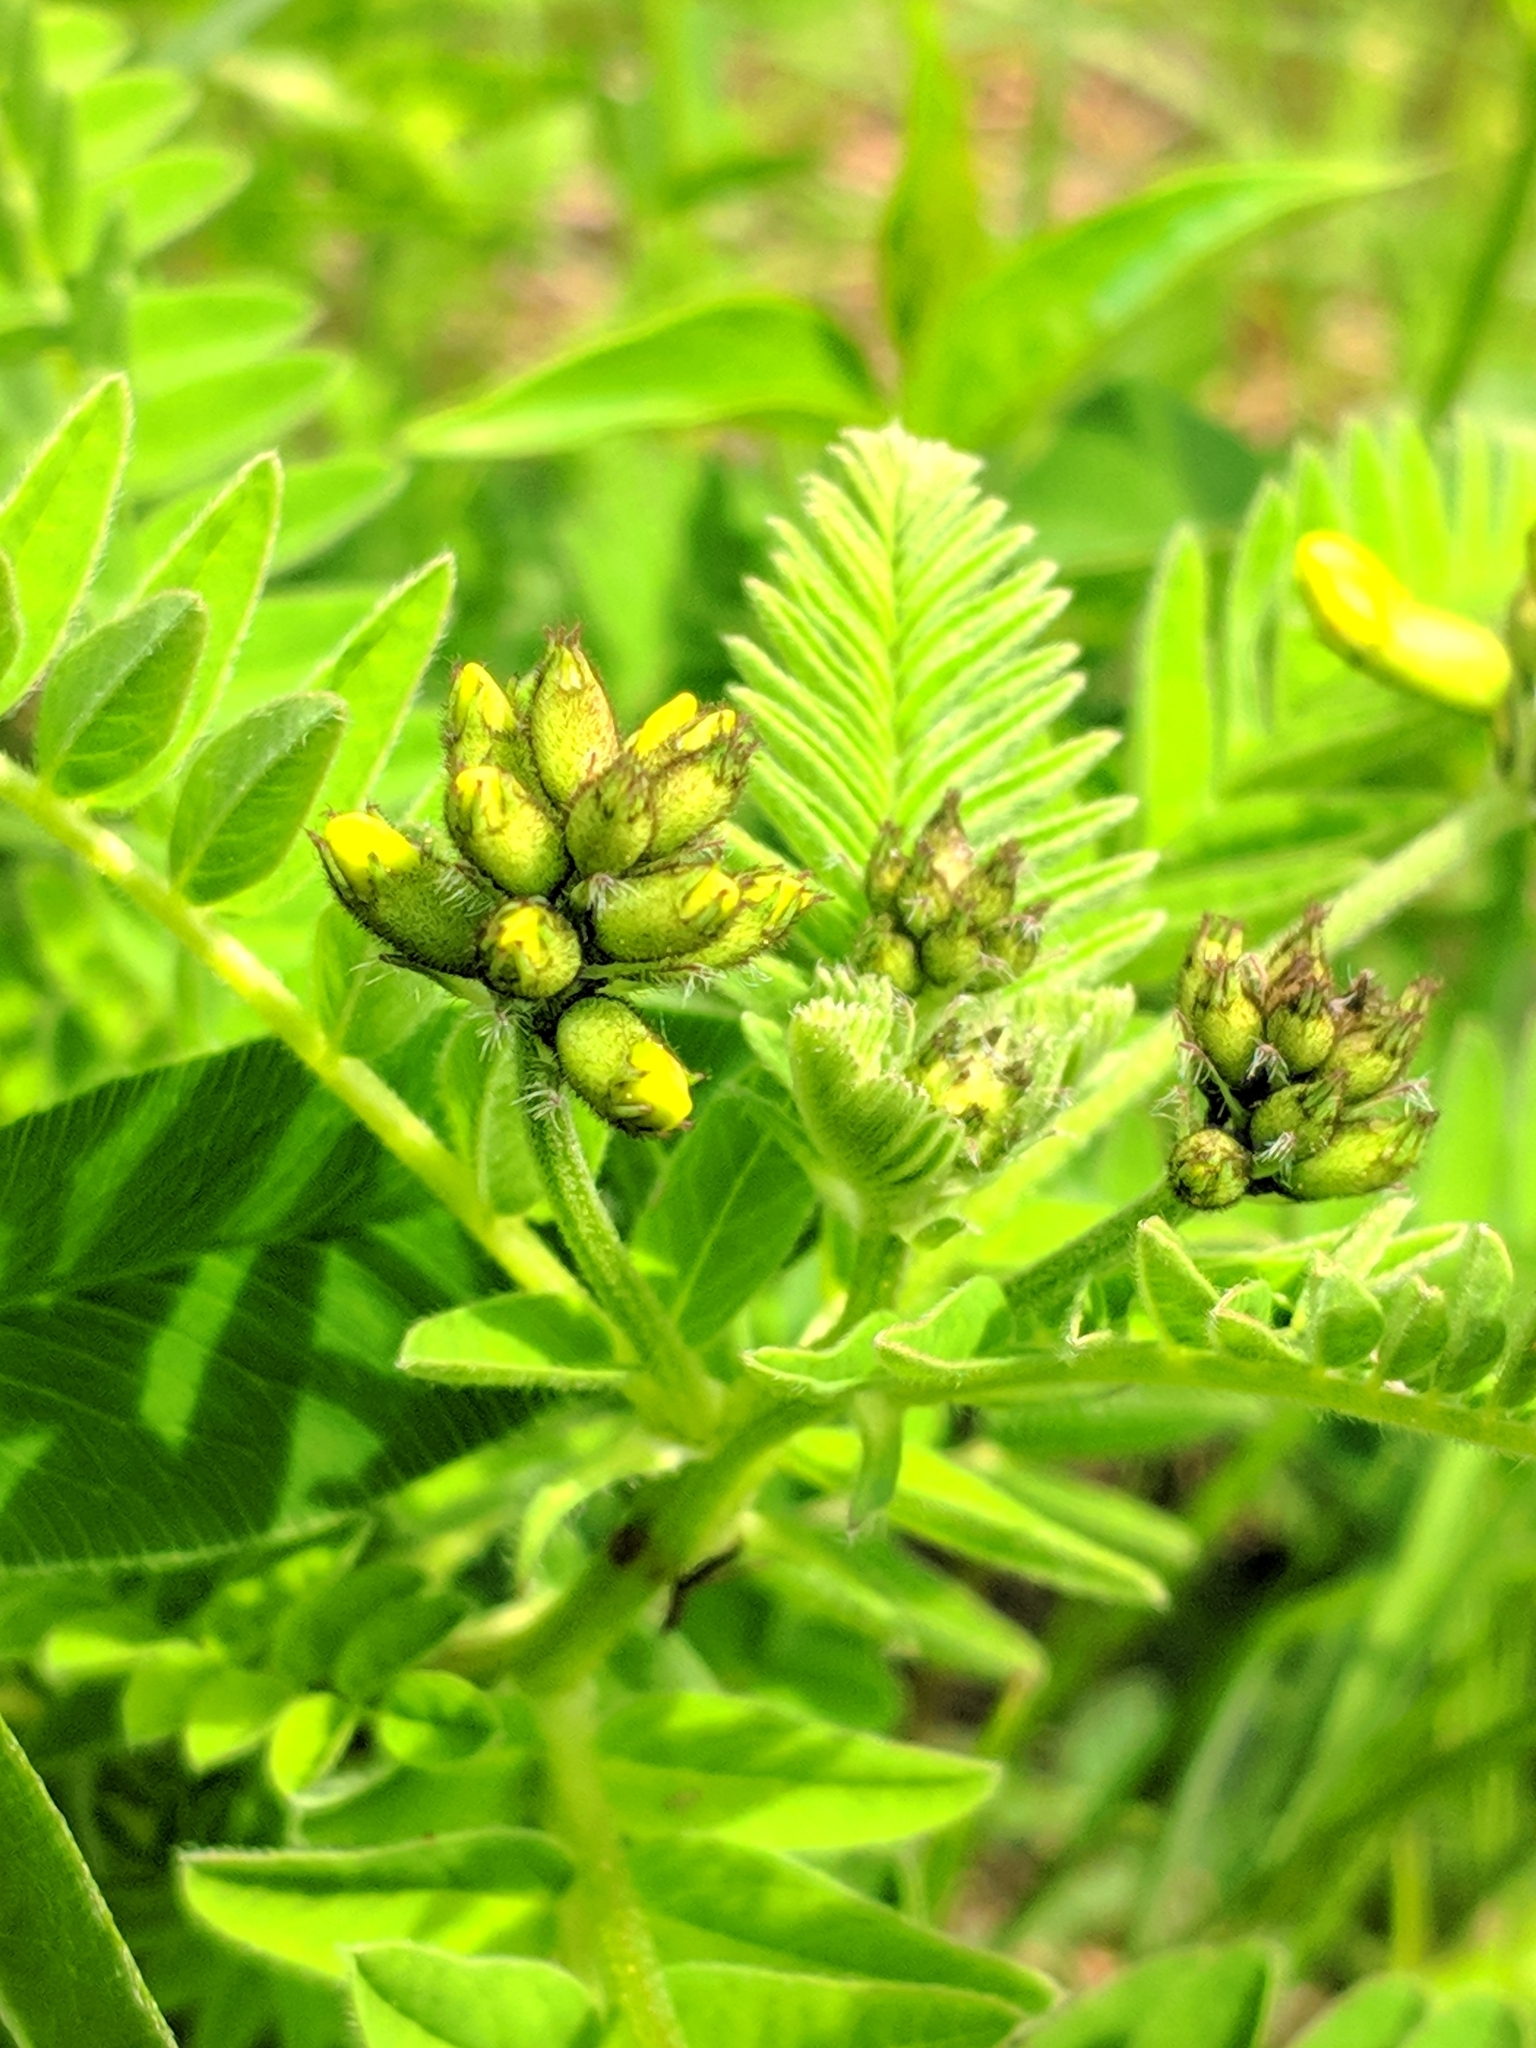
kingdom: Plantae
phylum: Tracheophyta
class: Magnoliopsida
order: Fabales
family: Fabaceae
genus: Astragalus
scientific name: Astragalus penduliflorus
